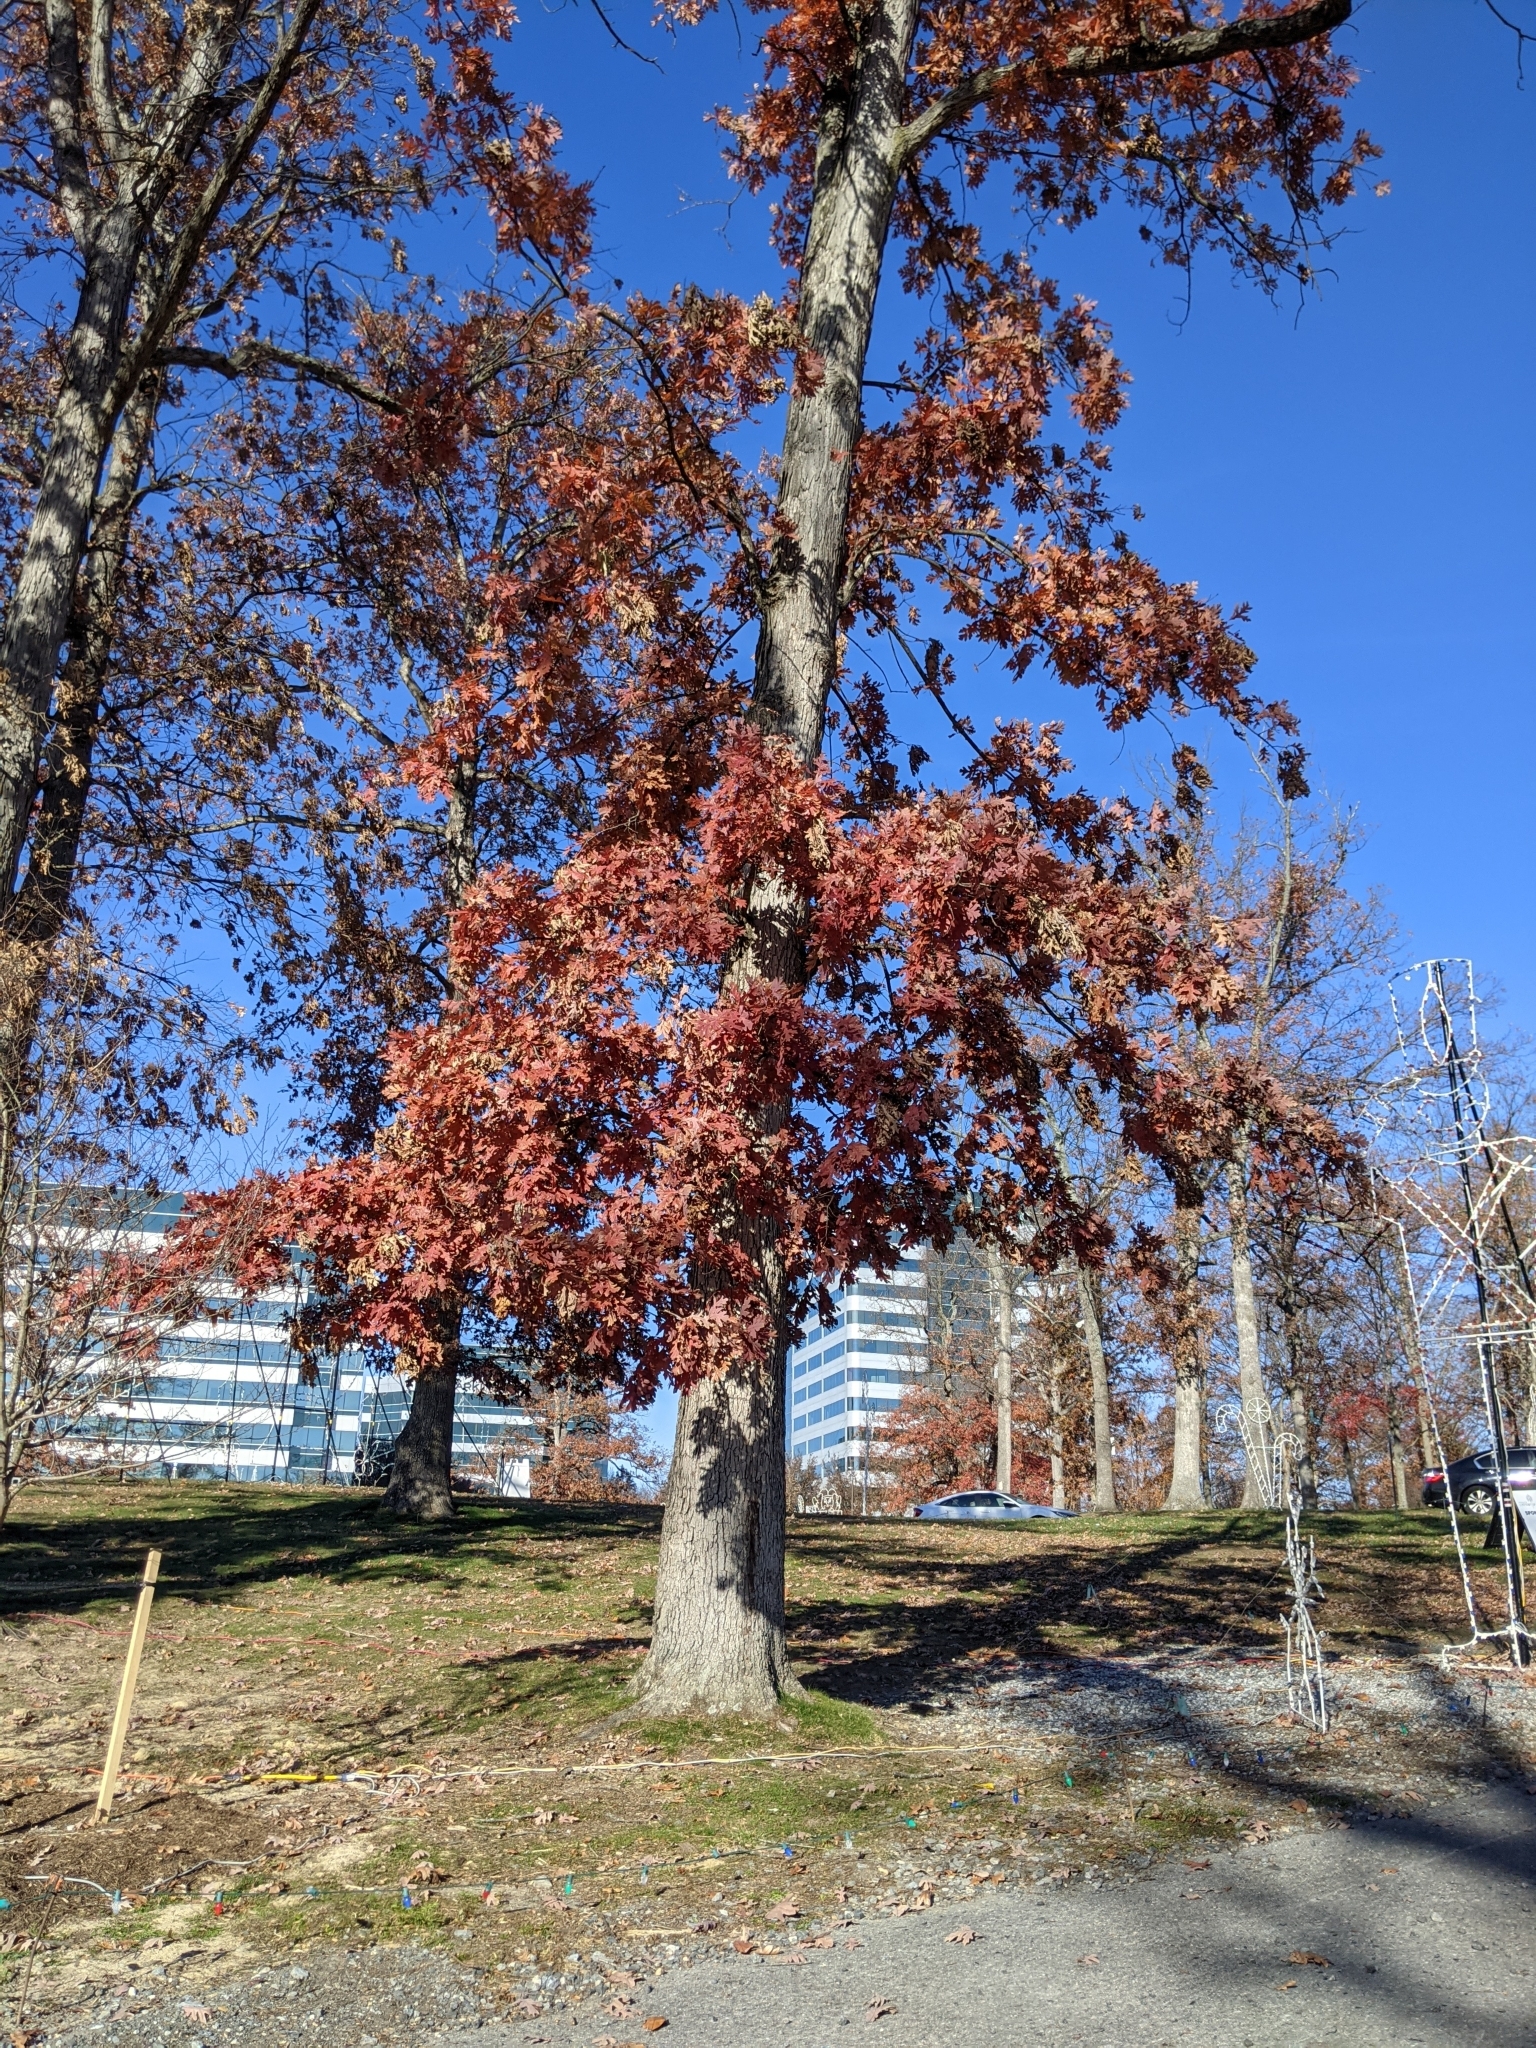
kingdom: Plantae
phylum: Tracheophyta
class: Magnoliopsida
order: Fagales
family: Fagaceae
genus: Quercus
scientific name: Quercus alba
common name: White oak
